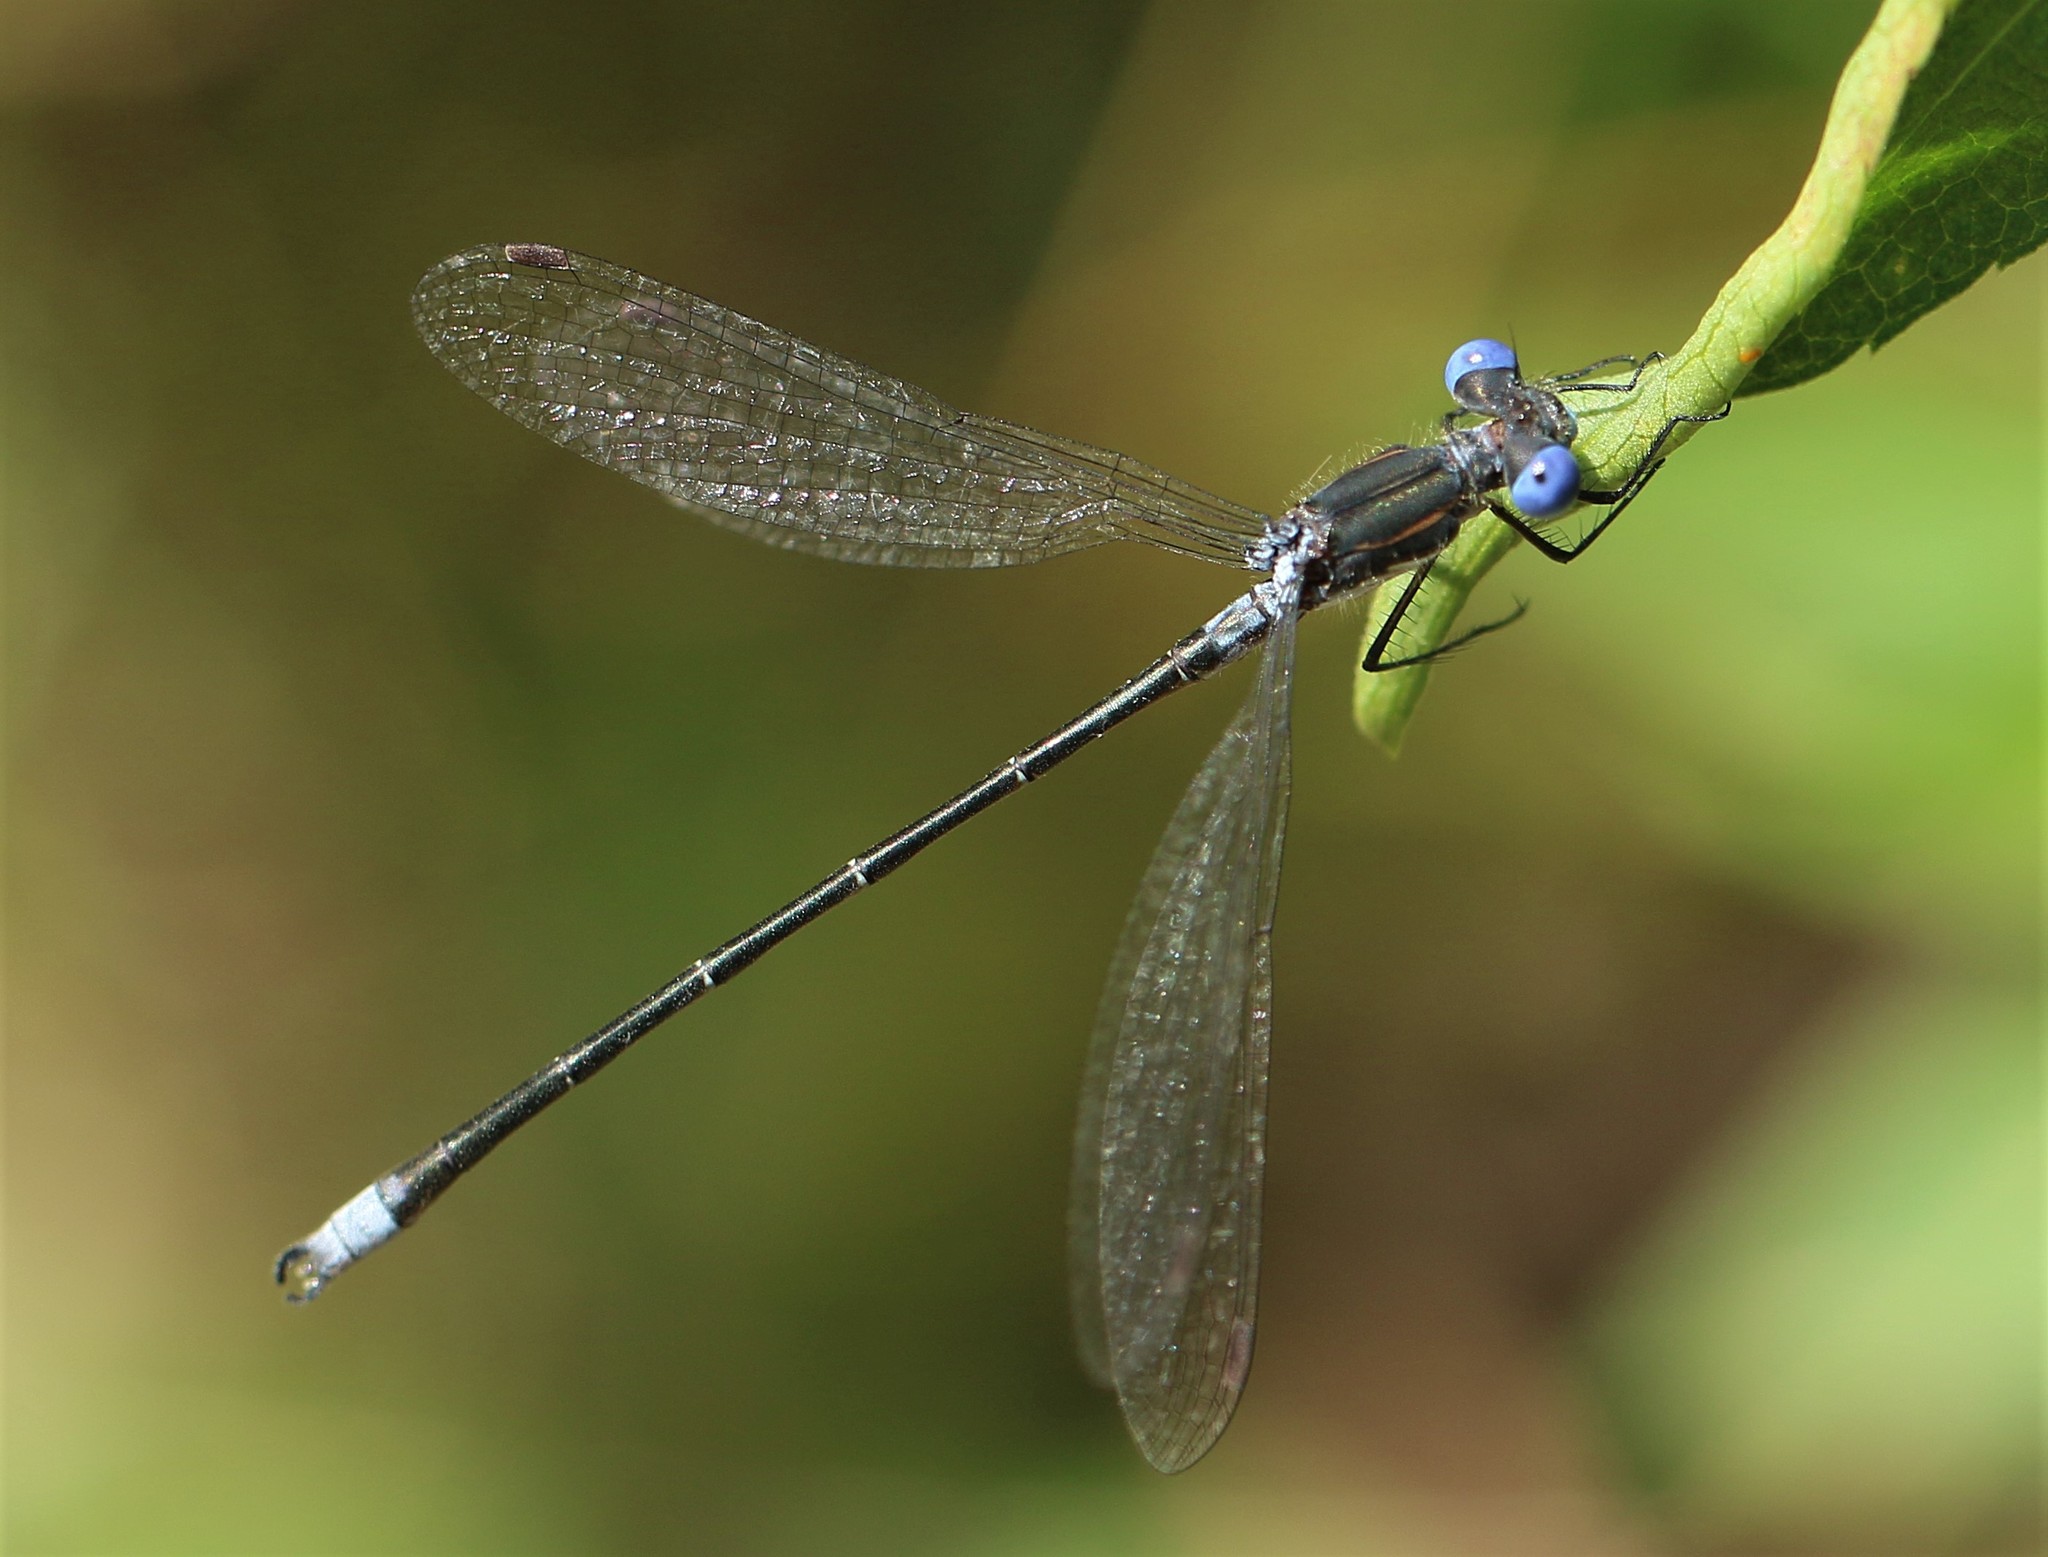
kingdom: Animalia
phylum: Arthropoda
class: Insecta
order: Odonata
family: Lestidae
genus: Lestes
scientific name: Lestes congener
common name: Spotted spreadwing
